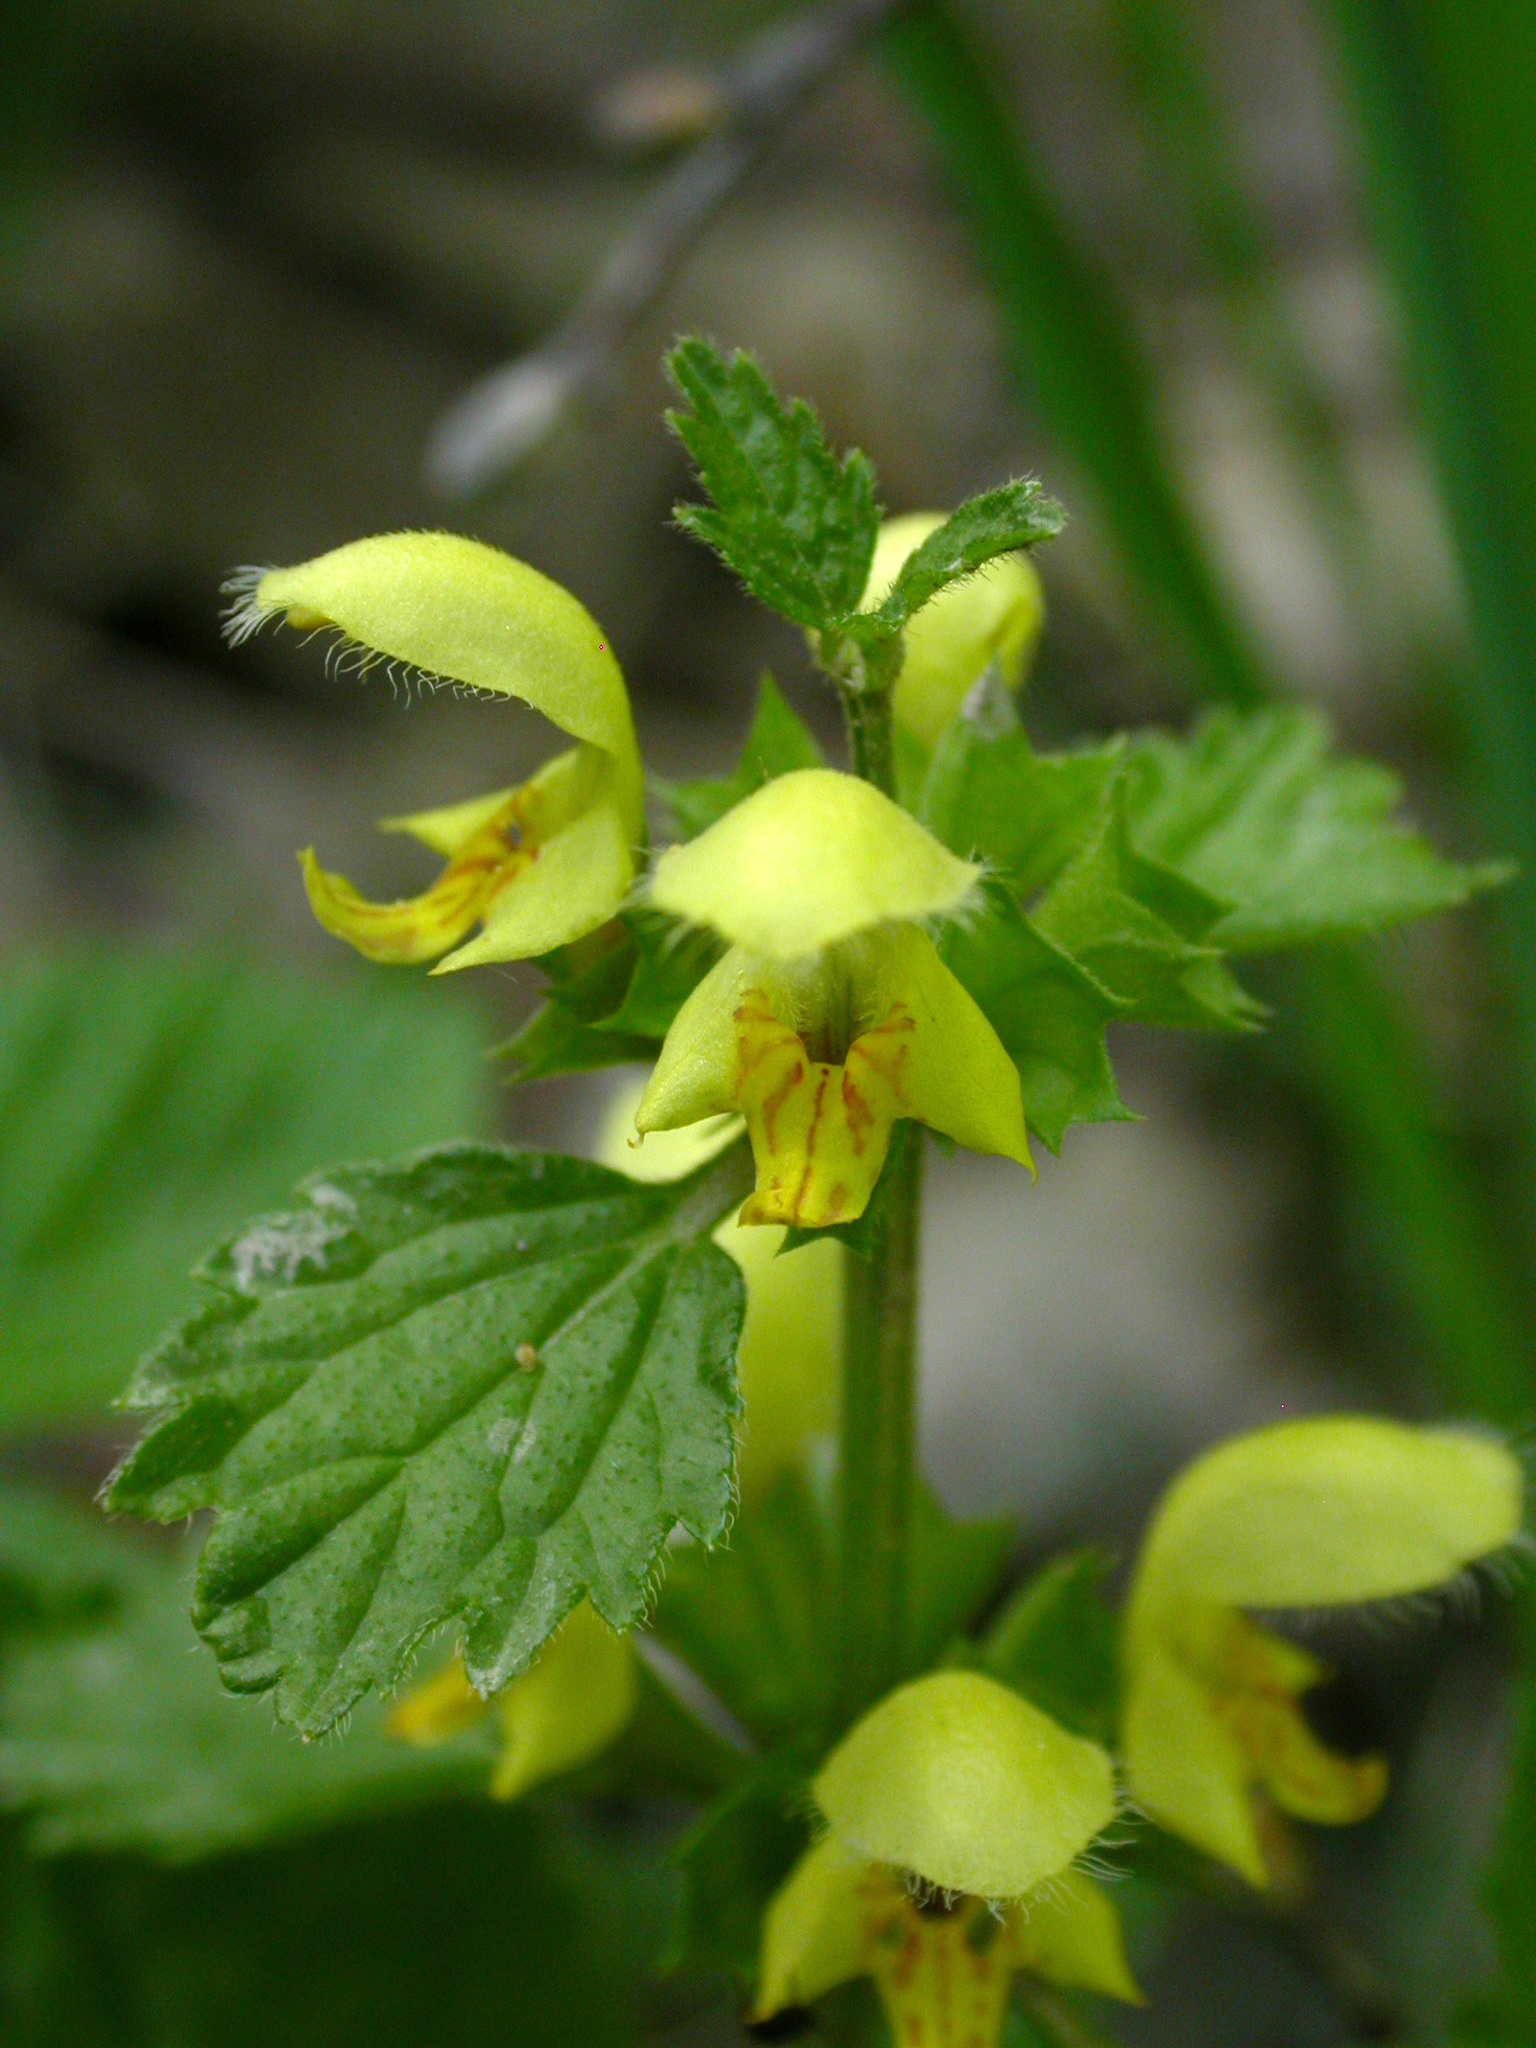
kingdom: Plantae
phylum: Tracheophyta
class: Magnoliopsida
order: Lamiales
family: Lamiaceae
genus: Lamium
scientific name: Lamium galeobdolon
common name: Yellow archangel
